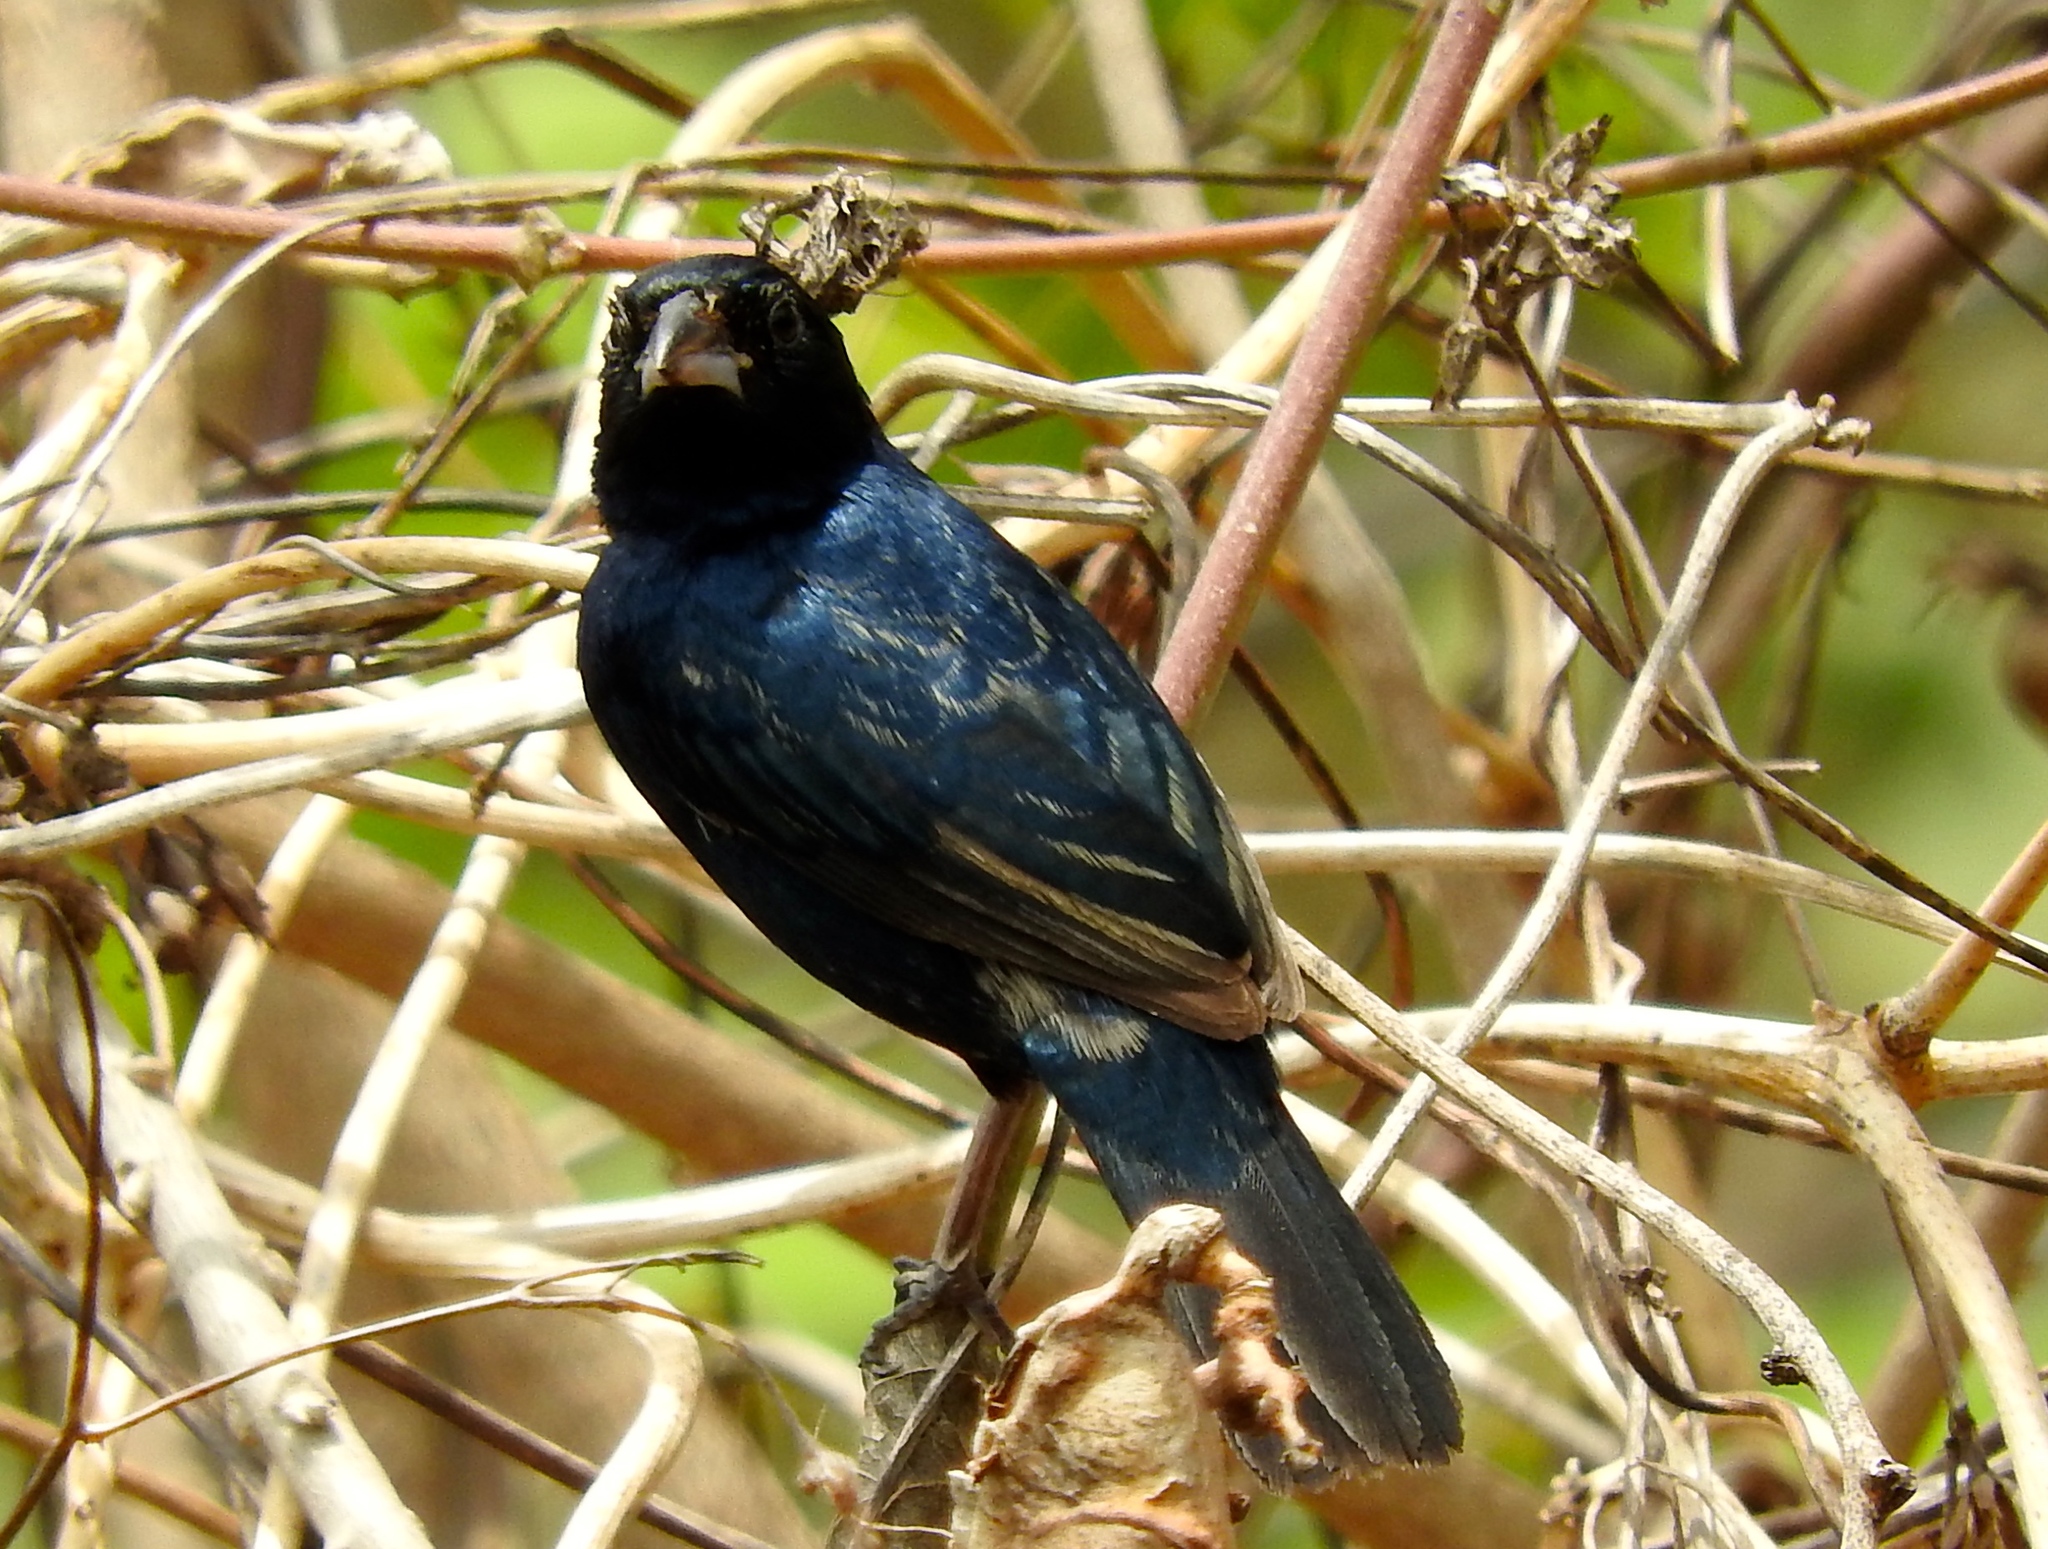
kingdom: Animalia
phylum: Chordata
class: Aves
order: Passeriformes
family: Thraupidae
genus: Volatinia
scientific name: Volatinia jacarina
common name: Blue-black grassquit
